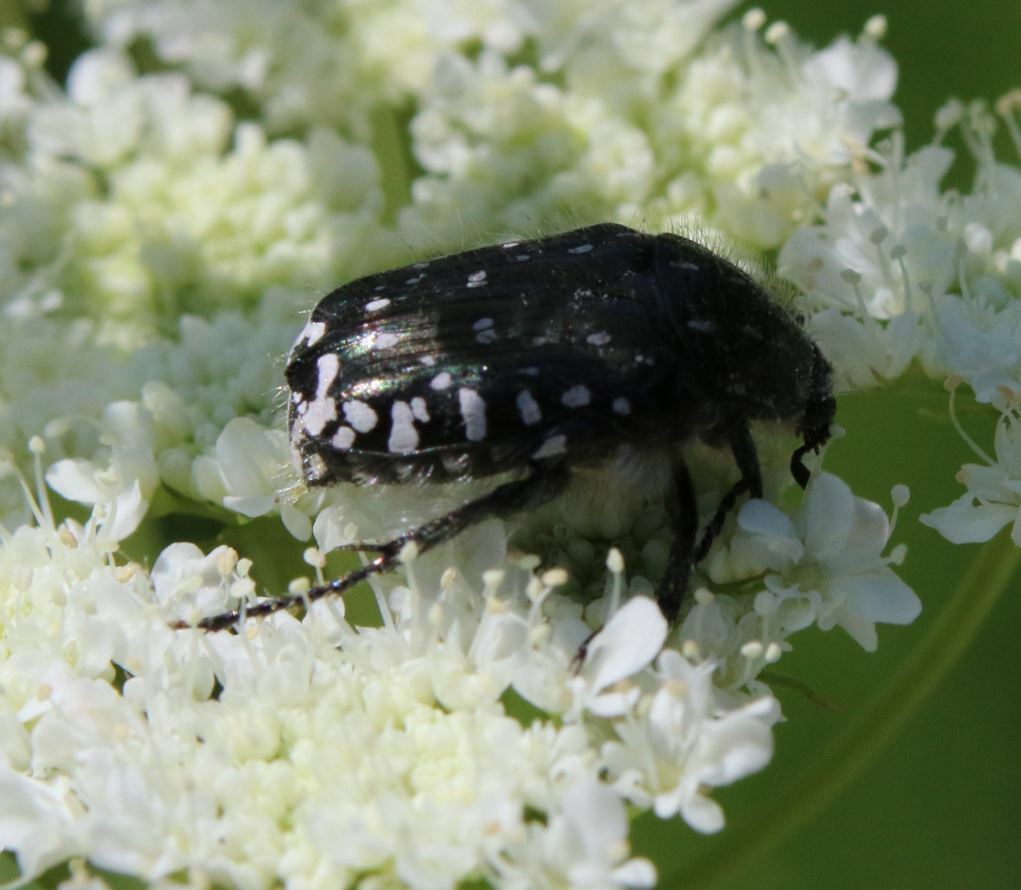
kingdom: Animalia
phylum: Arthropoda
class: Insecta
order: Coleoptera
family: Scarabaeidae
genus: Oxythyrea
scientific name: Oxythyrea funesta
